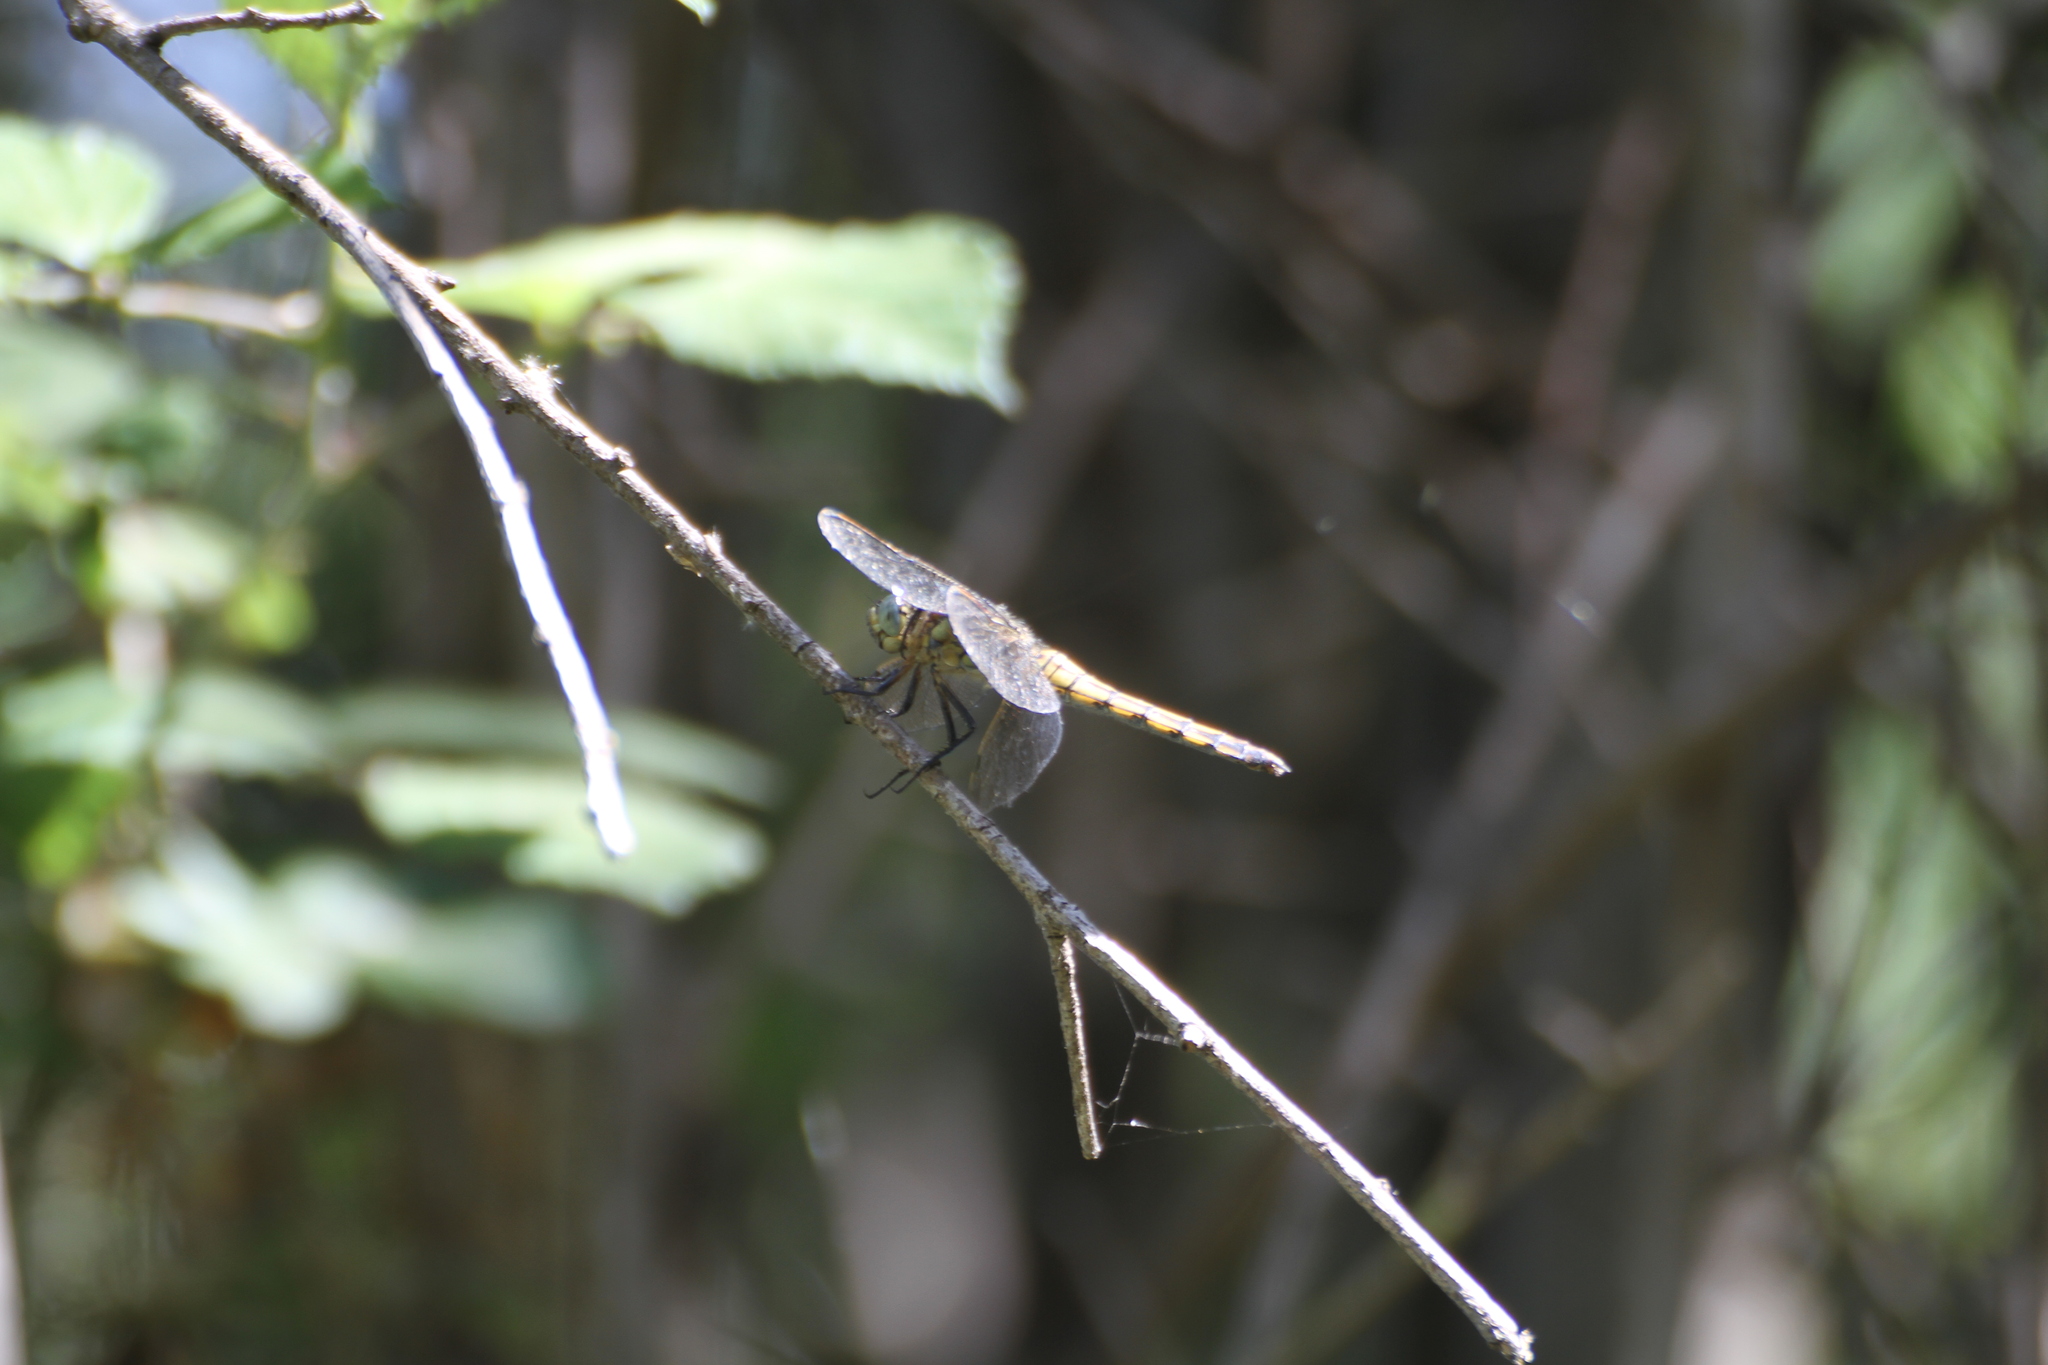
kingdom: Animalia
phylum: Arthropoda
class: Insecta
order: Odonata
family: Libellulidae
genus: Orthetrum
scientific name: Orthetrum cancellatum
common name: Black-tailed skimmer
